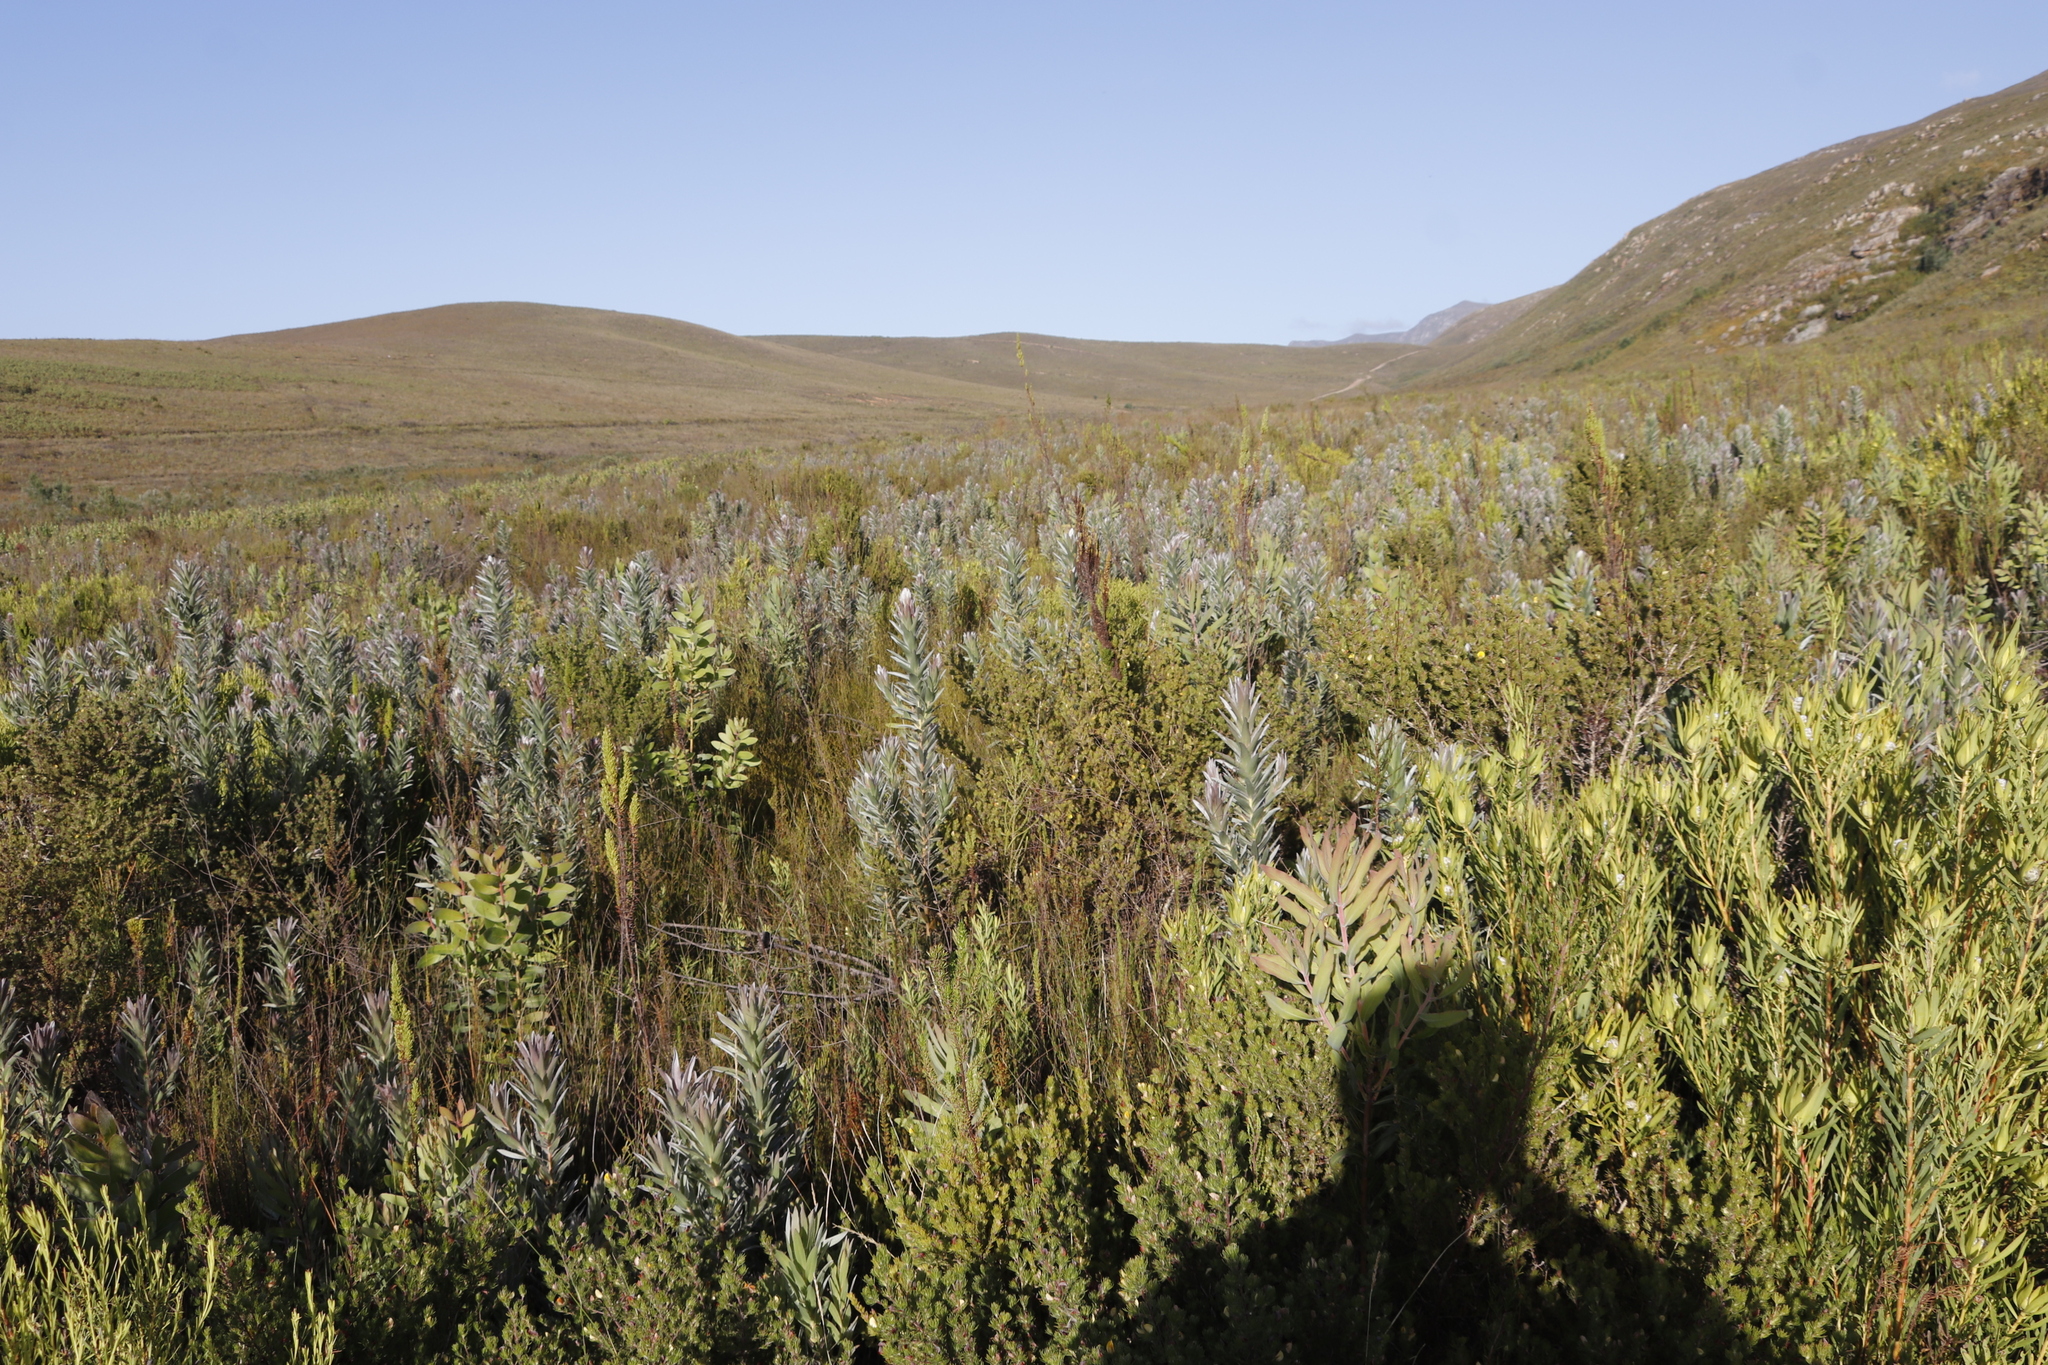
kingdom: Plantae
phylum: Tracheophyta
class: Magnoliopsida
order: Proteales
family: Proteaceae
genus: Protea
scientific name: Protea coronata
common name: Green sugarbush
